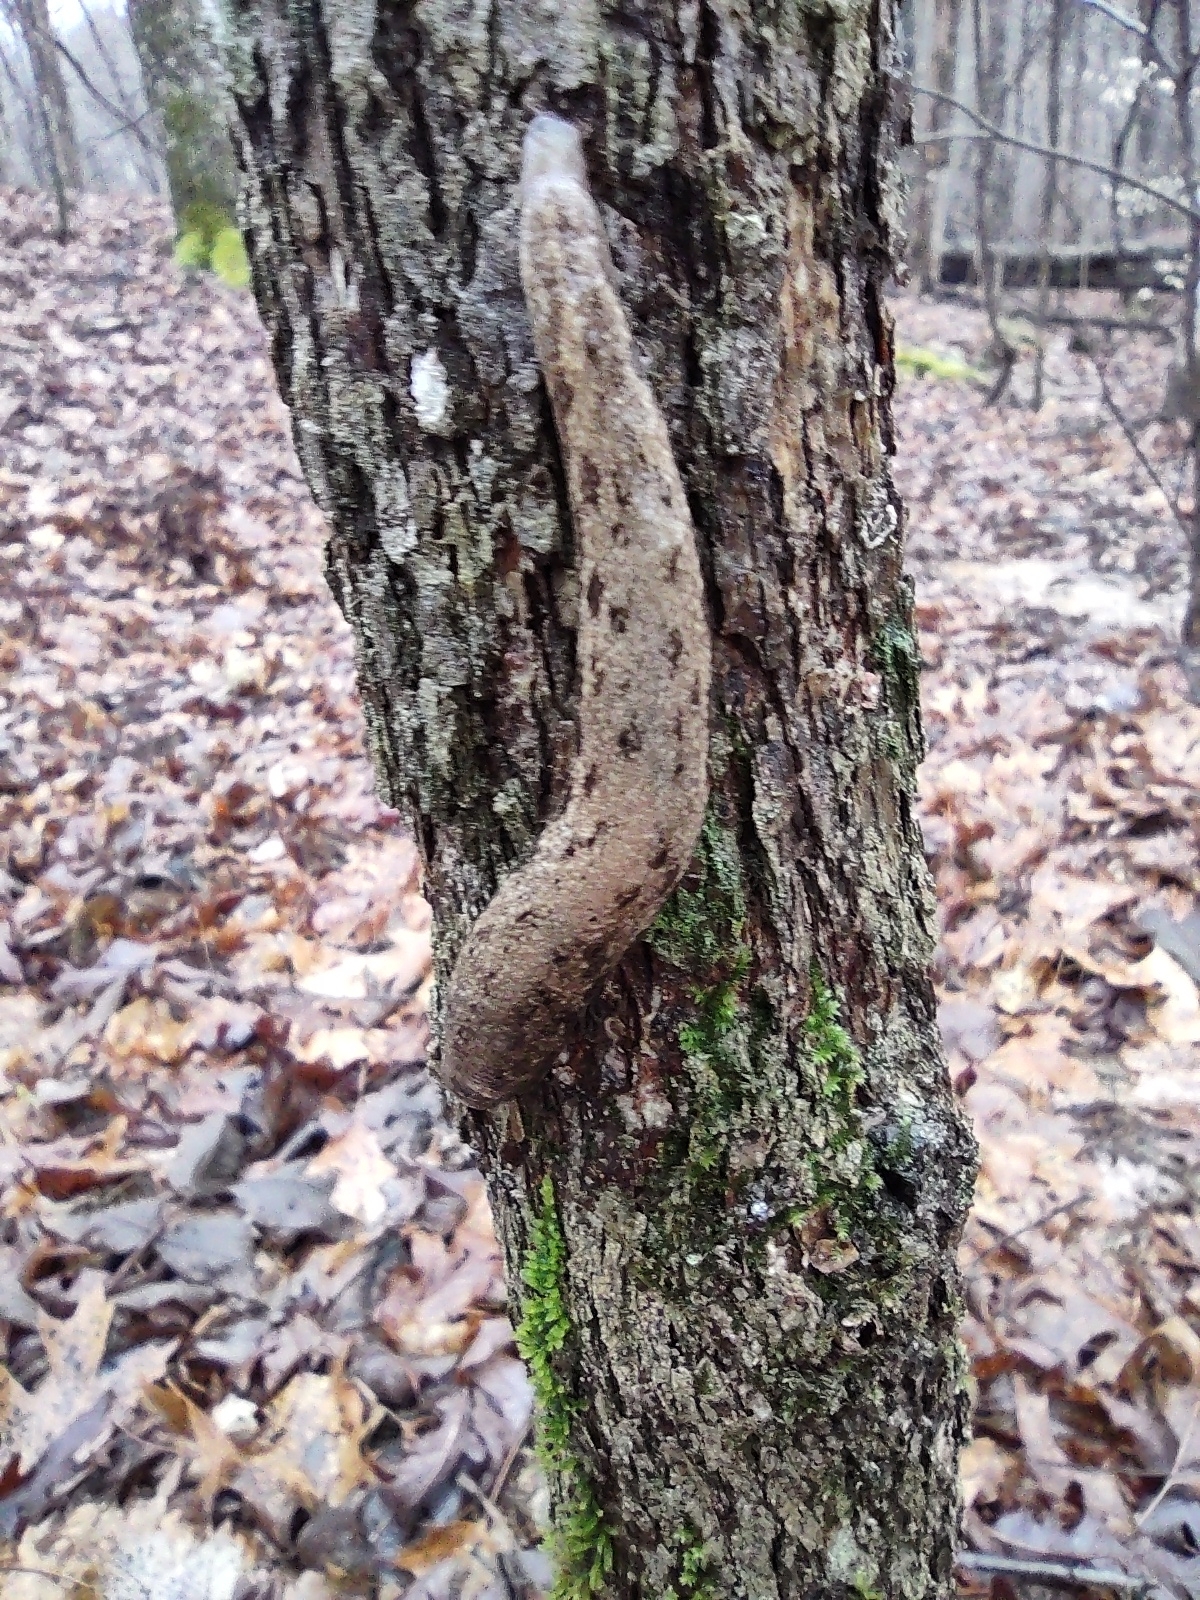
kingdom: Animalia
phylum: Mollusca
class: Gastropoda
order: Stylommatophora
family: Philomycidae
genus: Megapallifera
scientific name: Megapallifera mutabilis
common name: Changeable mantleslug
